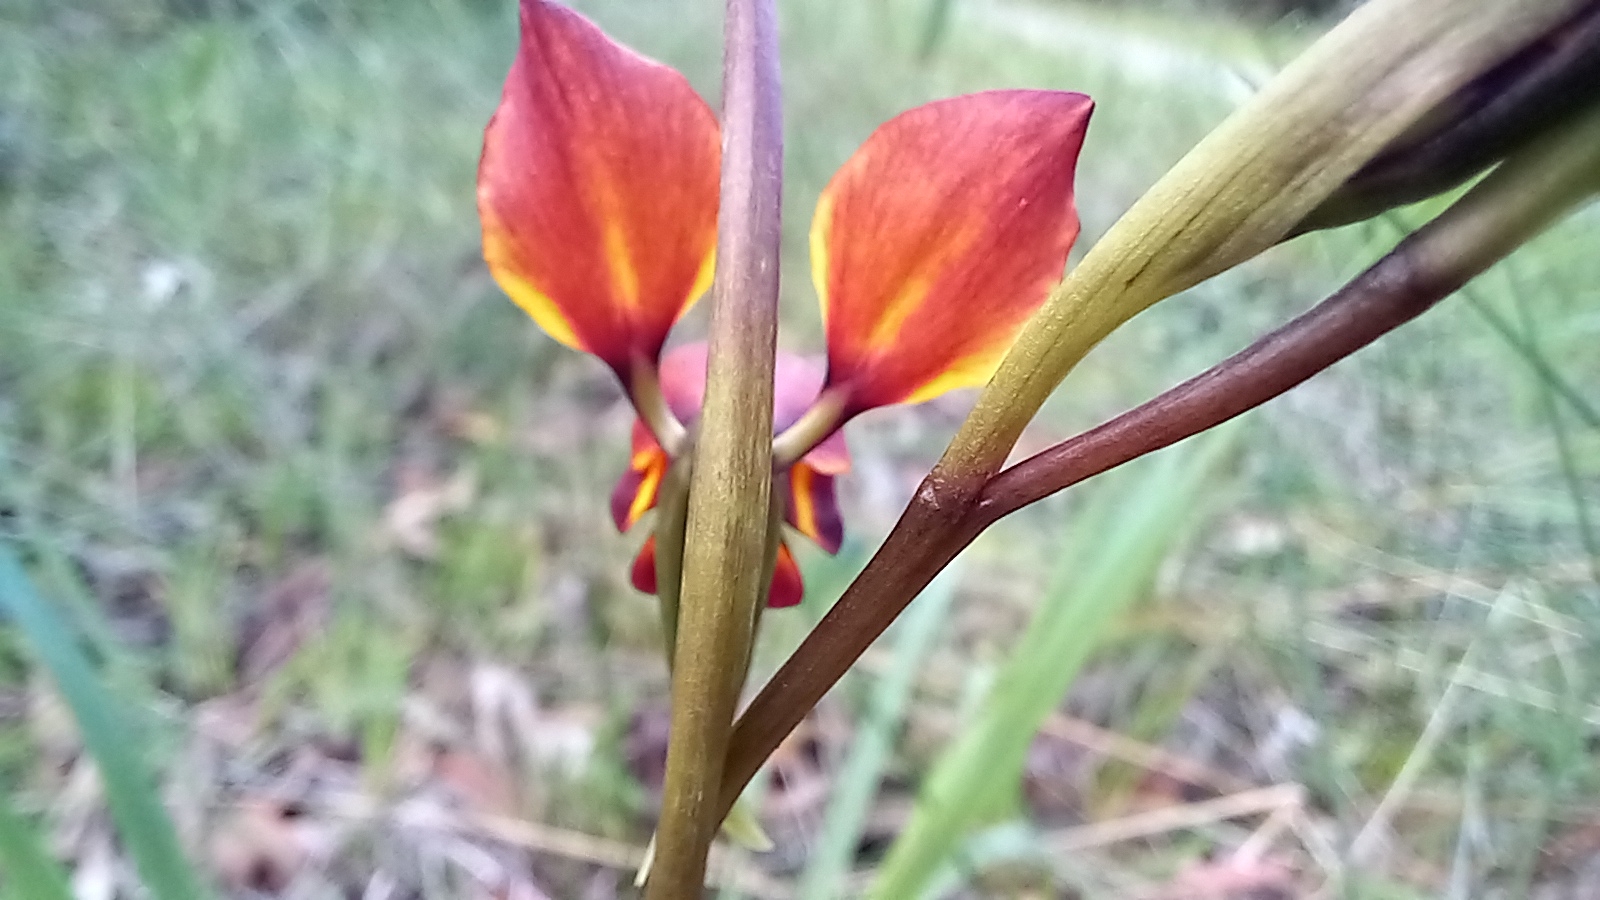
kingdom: Plantae
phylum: Tracheophyta
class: Liliopsida
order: Asparagales
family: Orchidaceae
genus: Diuris
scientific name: Diuris magnifica
